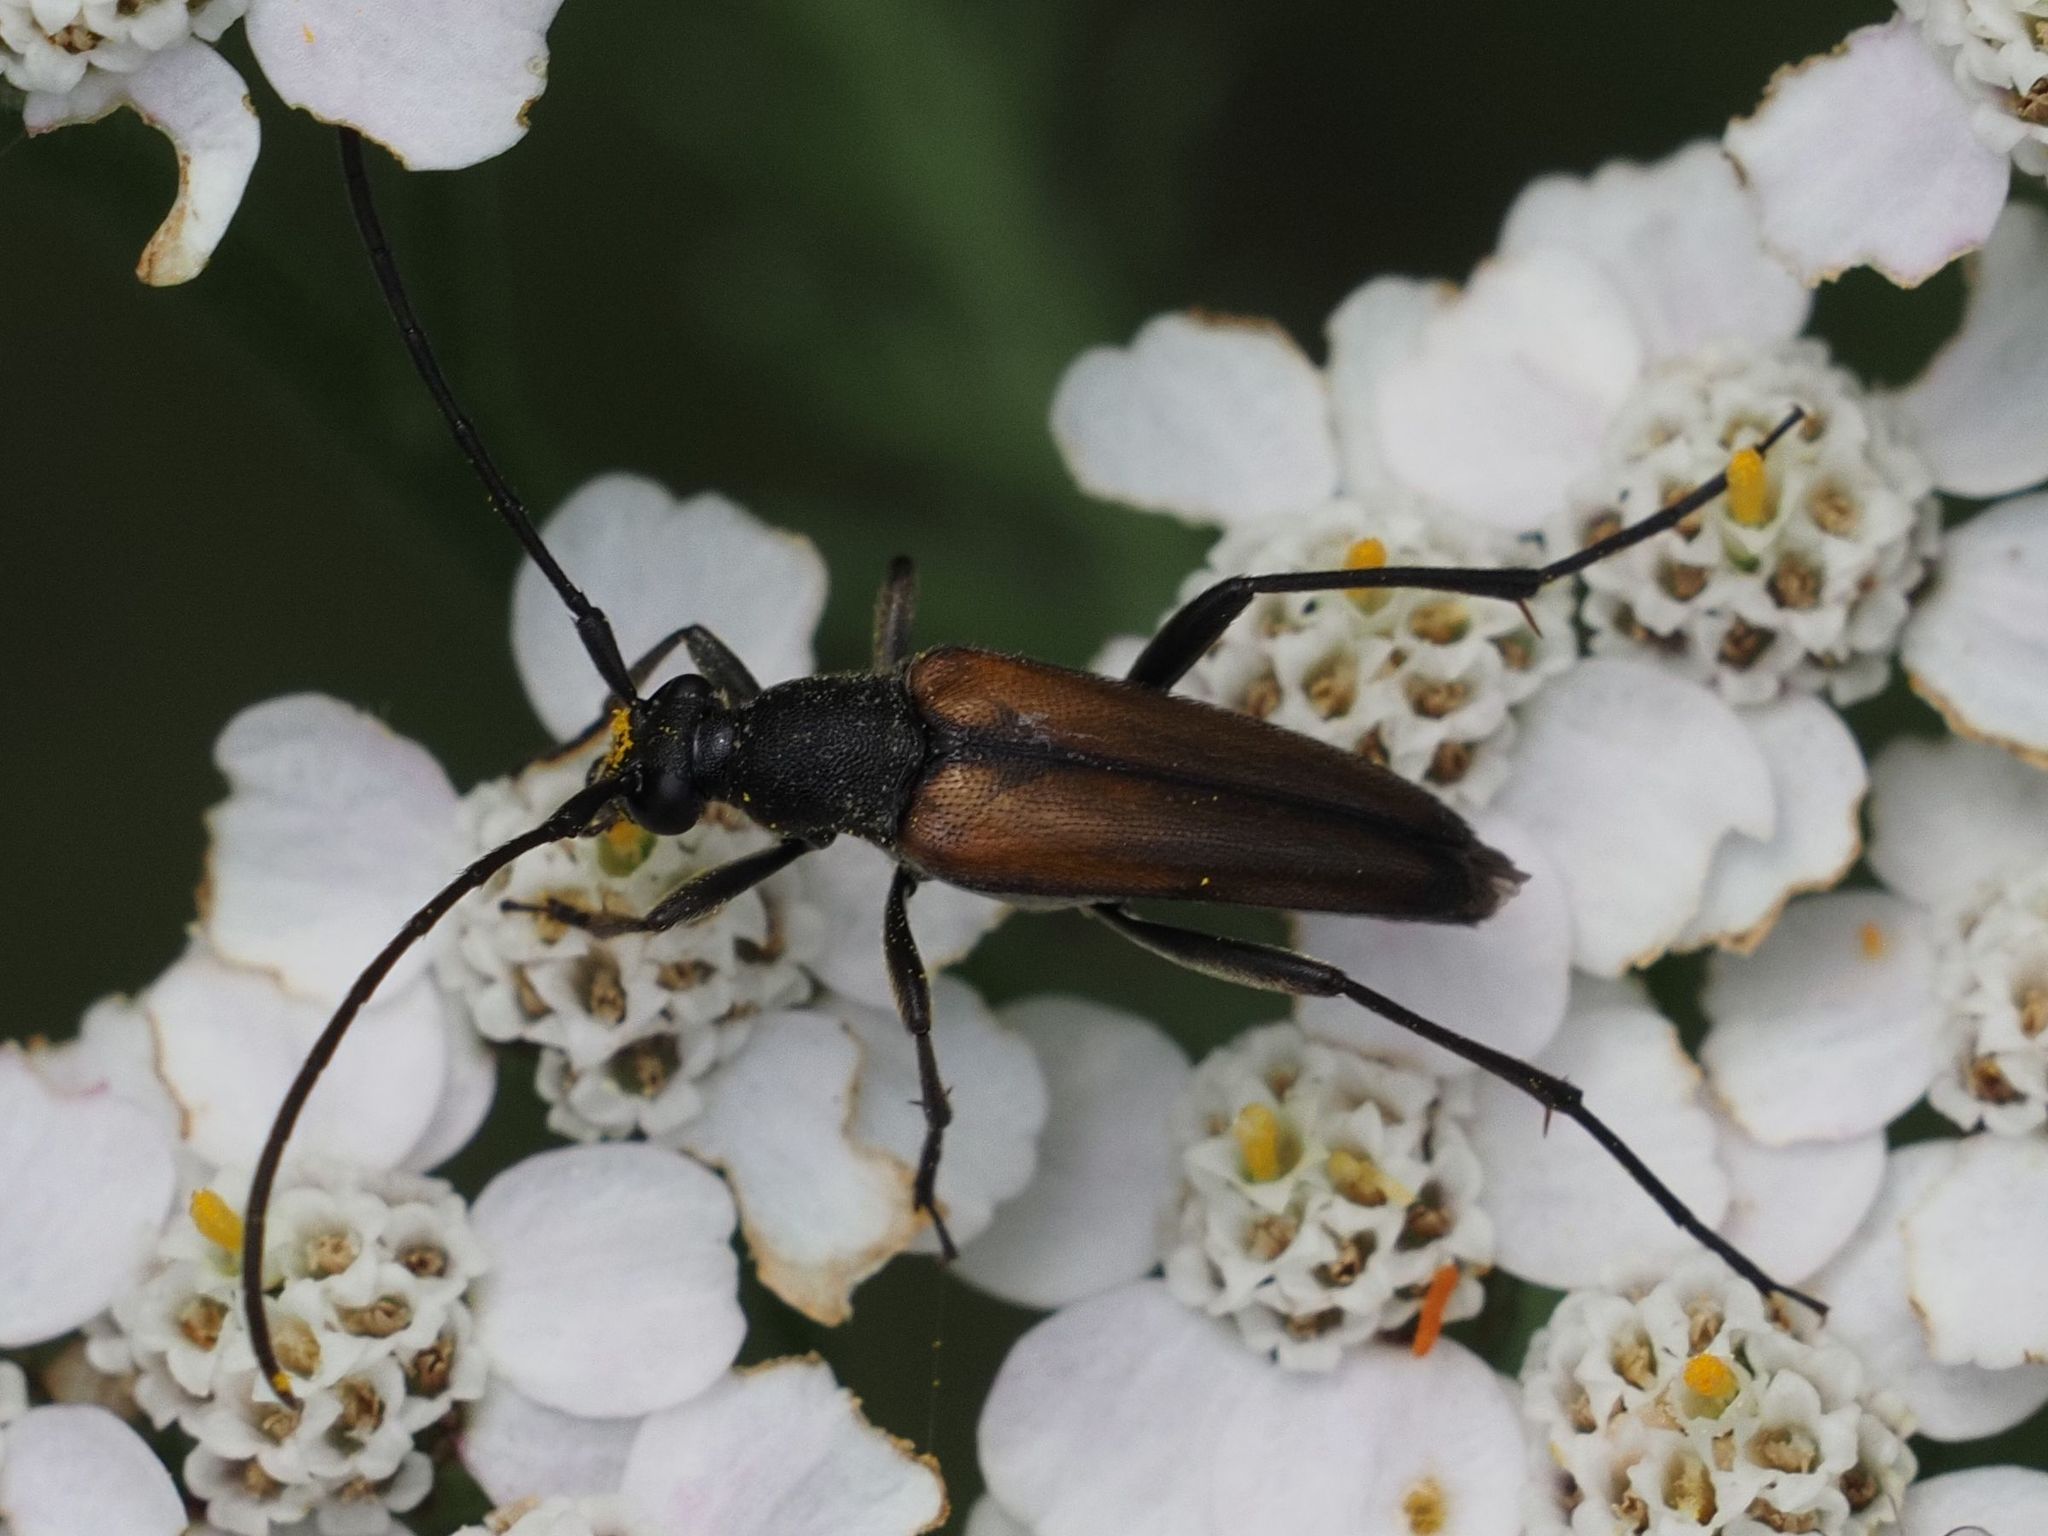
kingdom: Animalia
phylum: Arthropoda
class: Insecta
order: Coleoptera
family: Cerambycidae
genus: Stenurella
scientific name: Stenurella melanura
